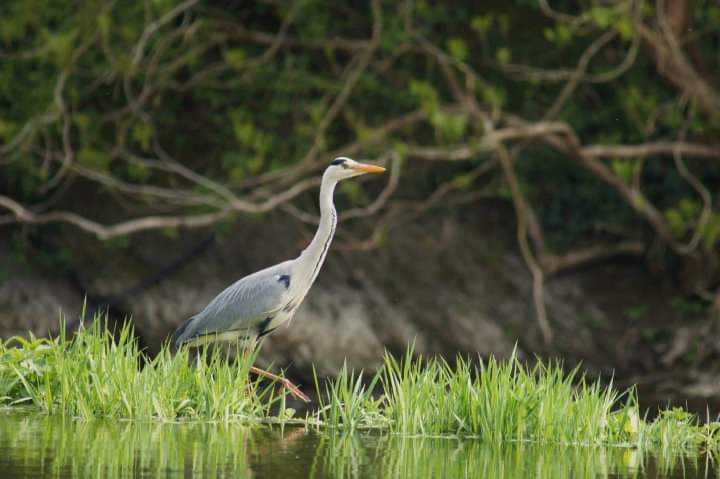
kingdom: Animalia
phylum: Chordata
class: Aves
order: Pelecaniformes
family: Ardeidae
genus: Ardea
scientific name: Ardea cinerea
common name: Grey heron
